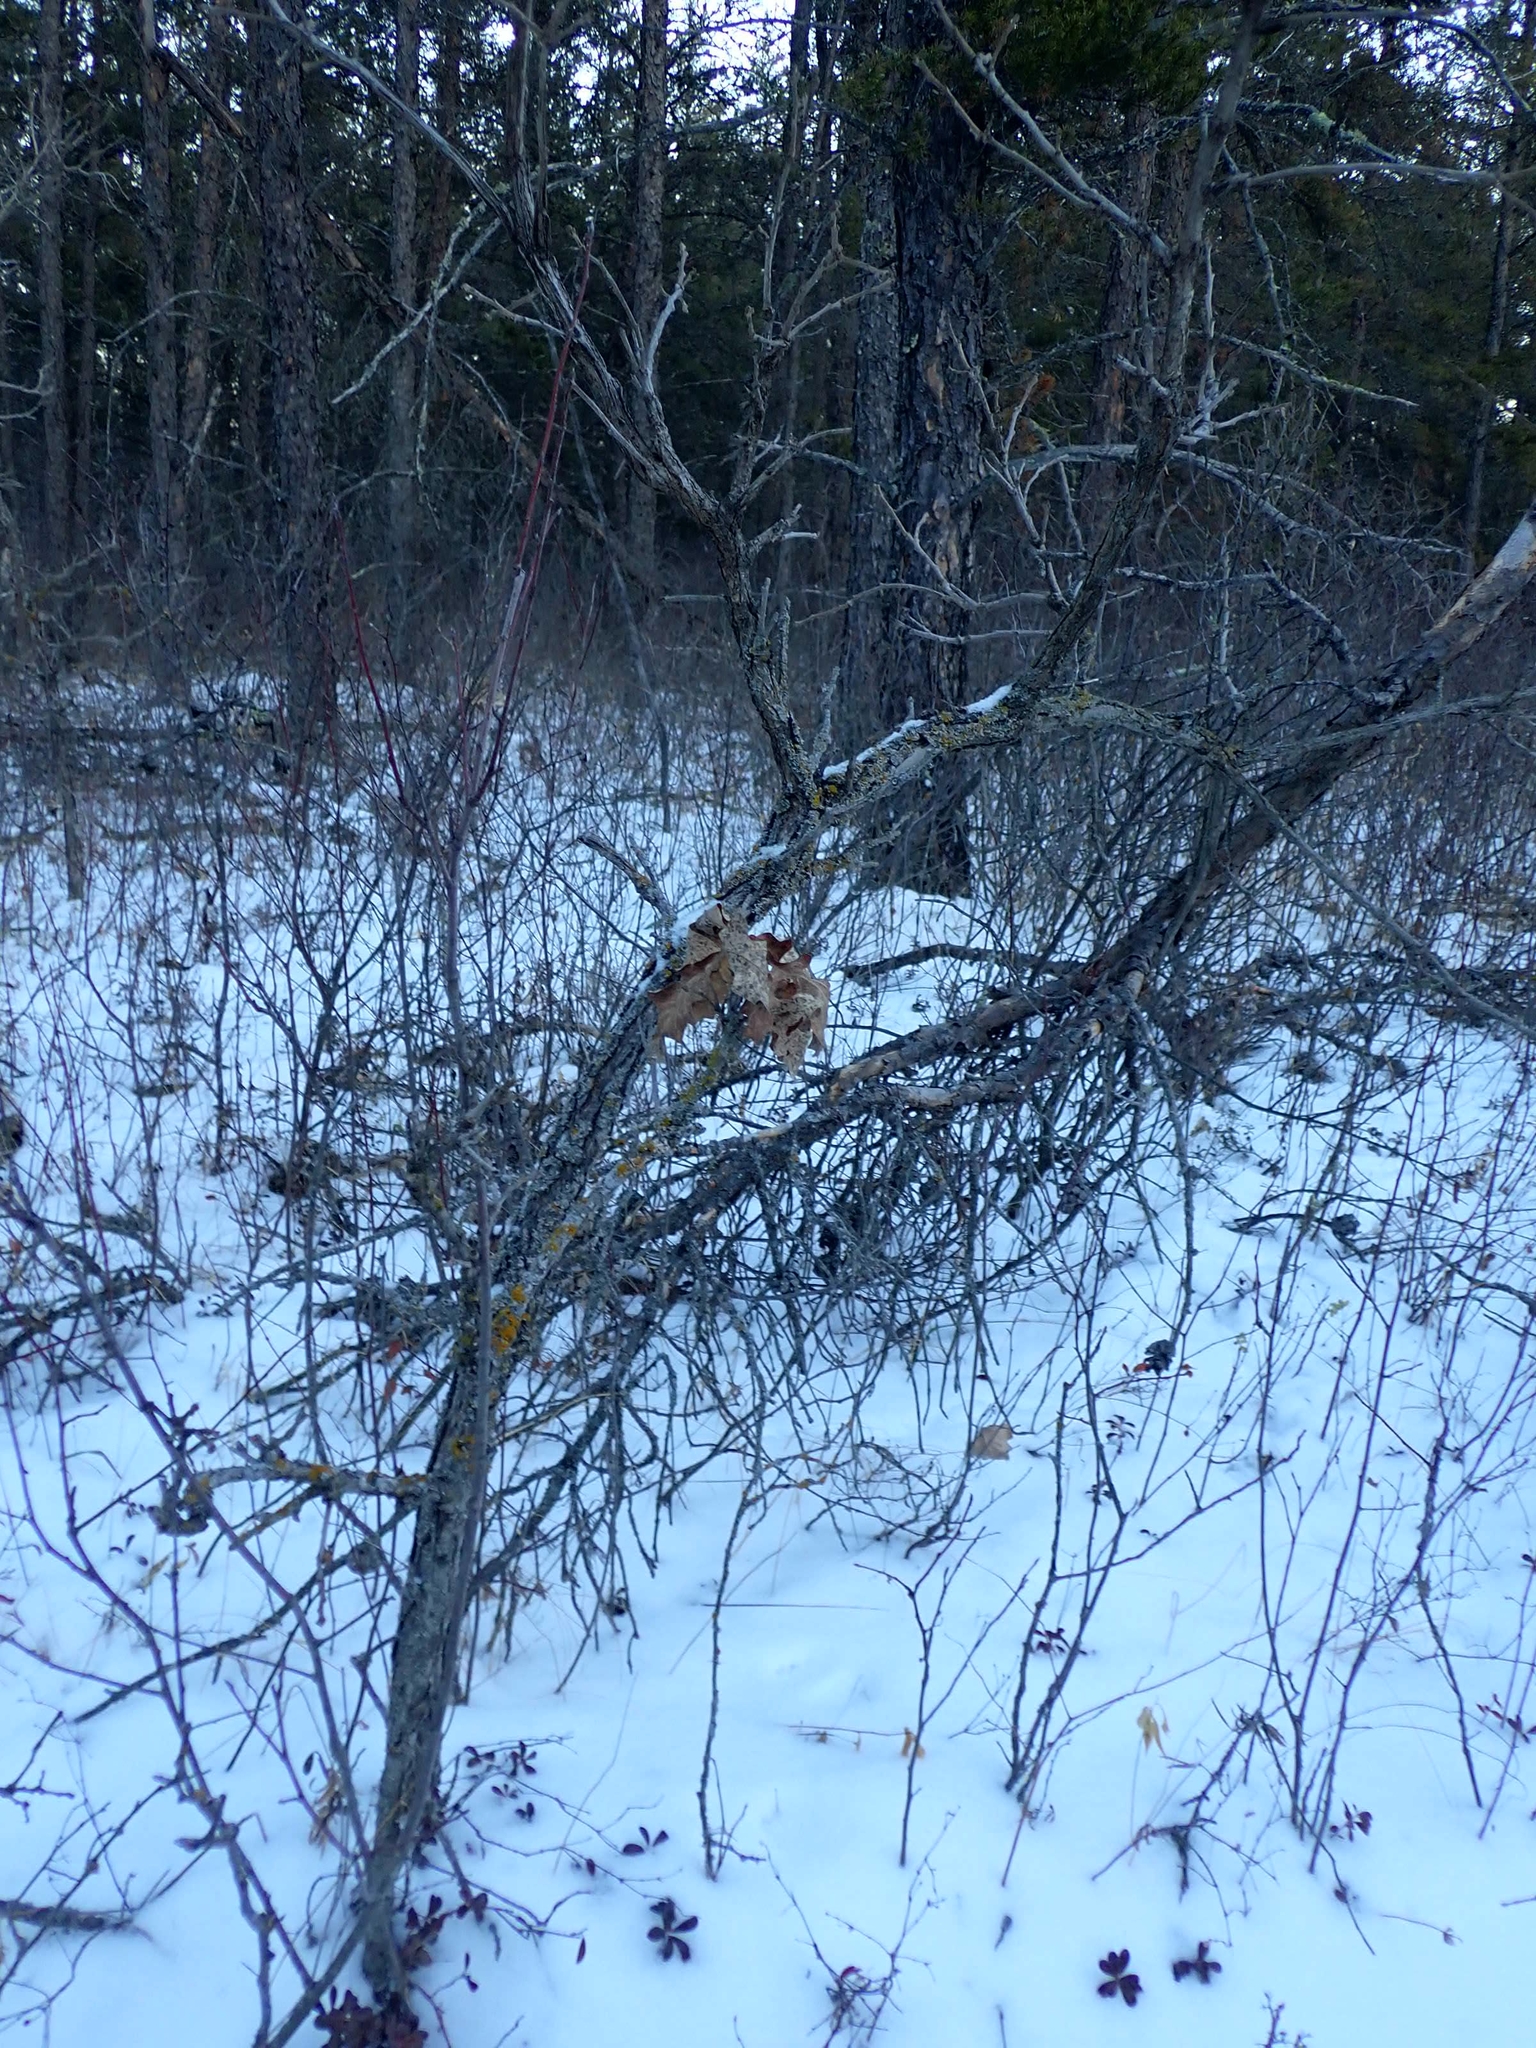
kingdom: Plantae
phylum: Tracheophyta
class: Magnoliopsida
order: Fagales
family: Fagaceae
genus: Quercus
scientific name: Quercus macrocarpa
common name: Bur oak
